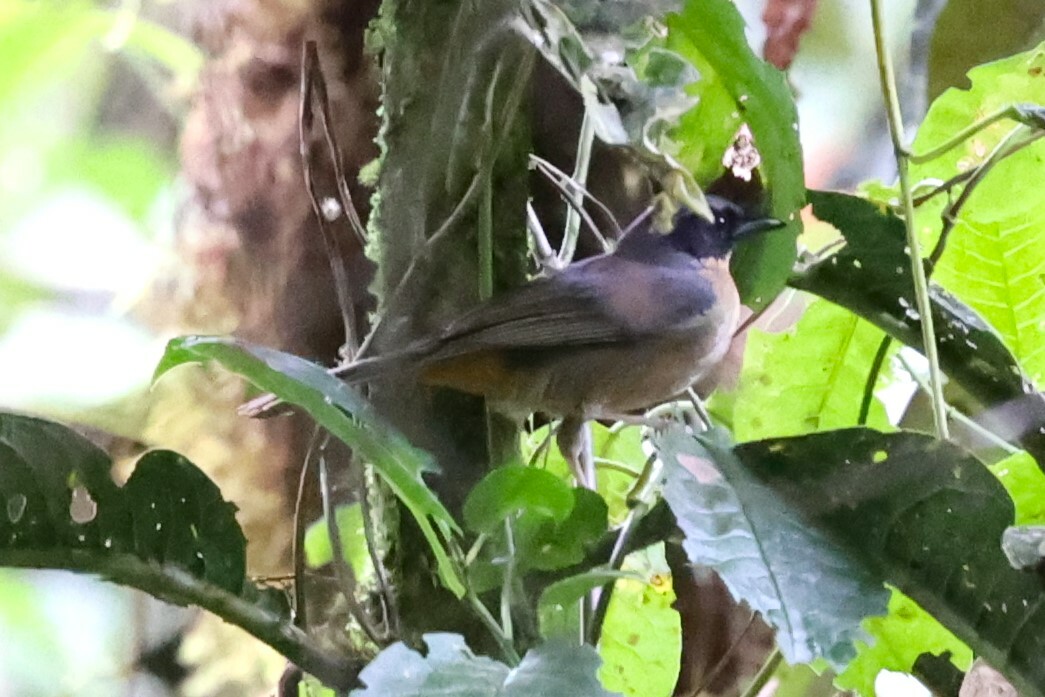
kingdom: Animalia
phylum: Chordata
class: Aves
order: Passeriformes
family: Thraupidae
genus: Sphenopsis
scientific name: Sphenopsis melanotis
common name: Black-eared hemispingus
